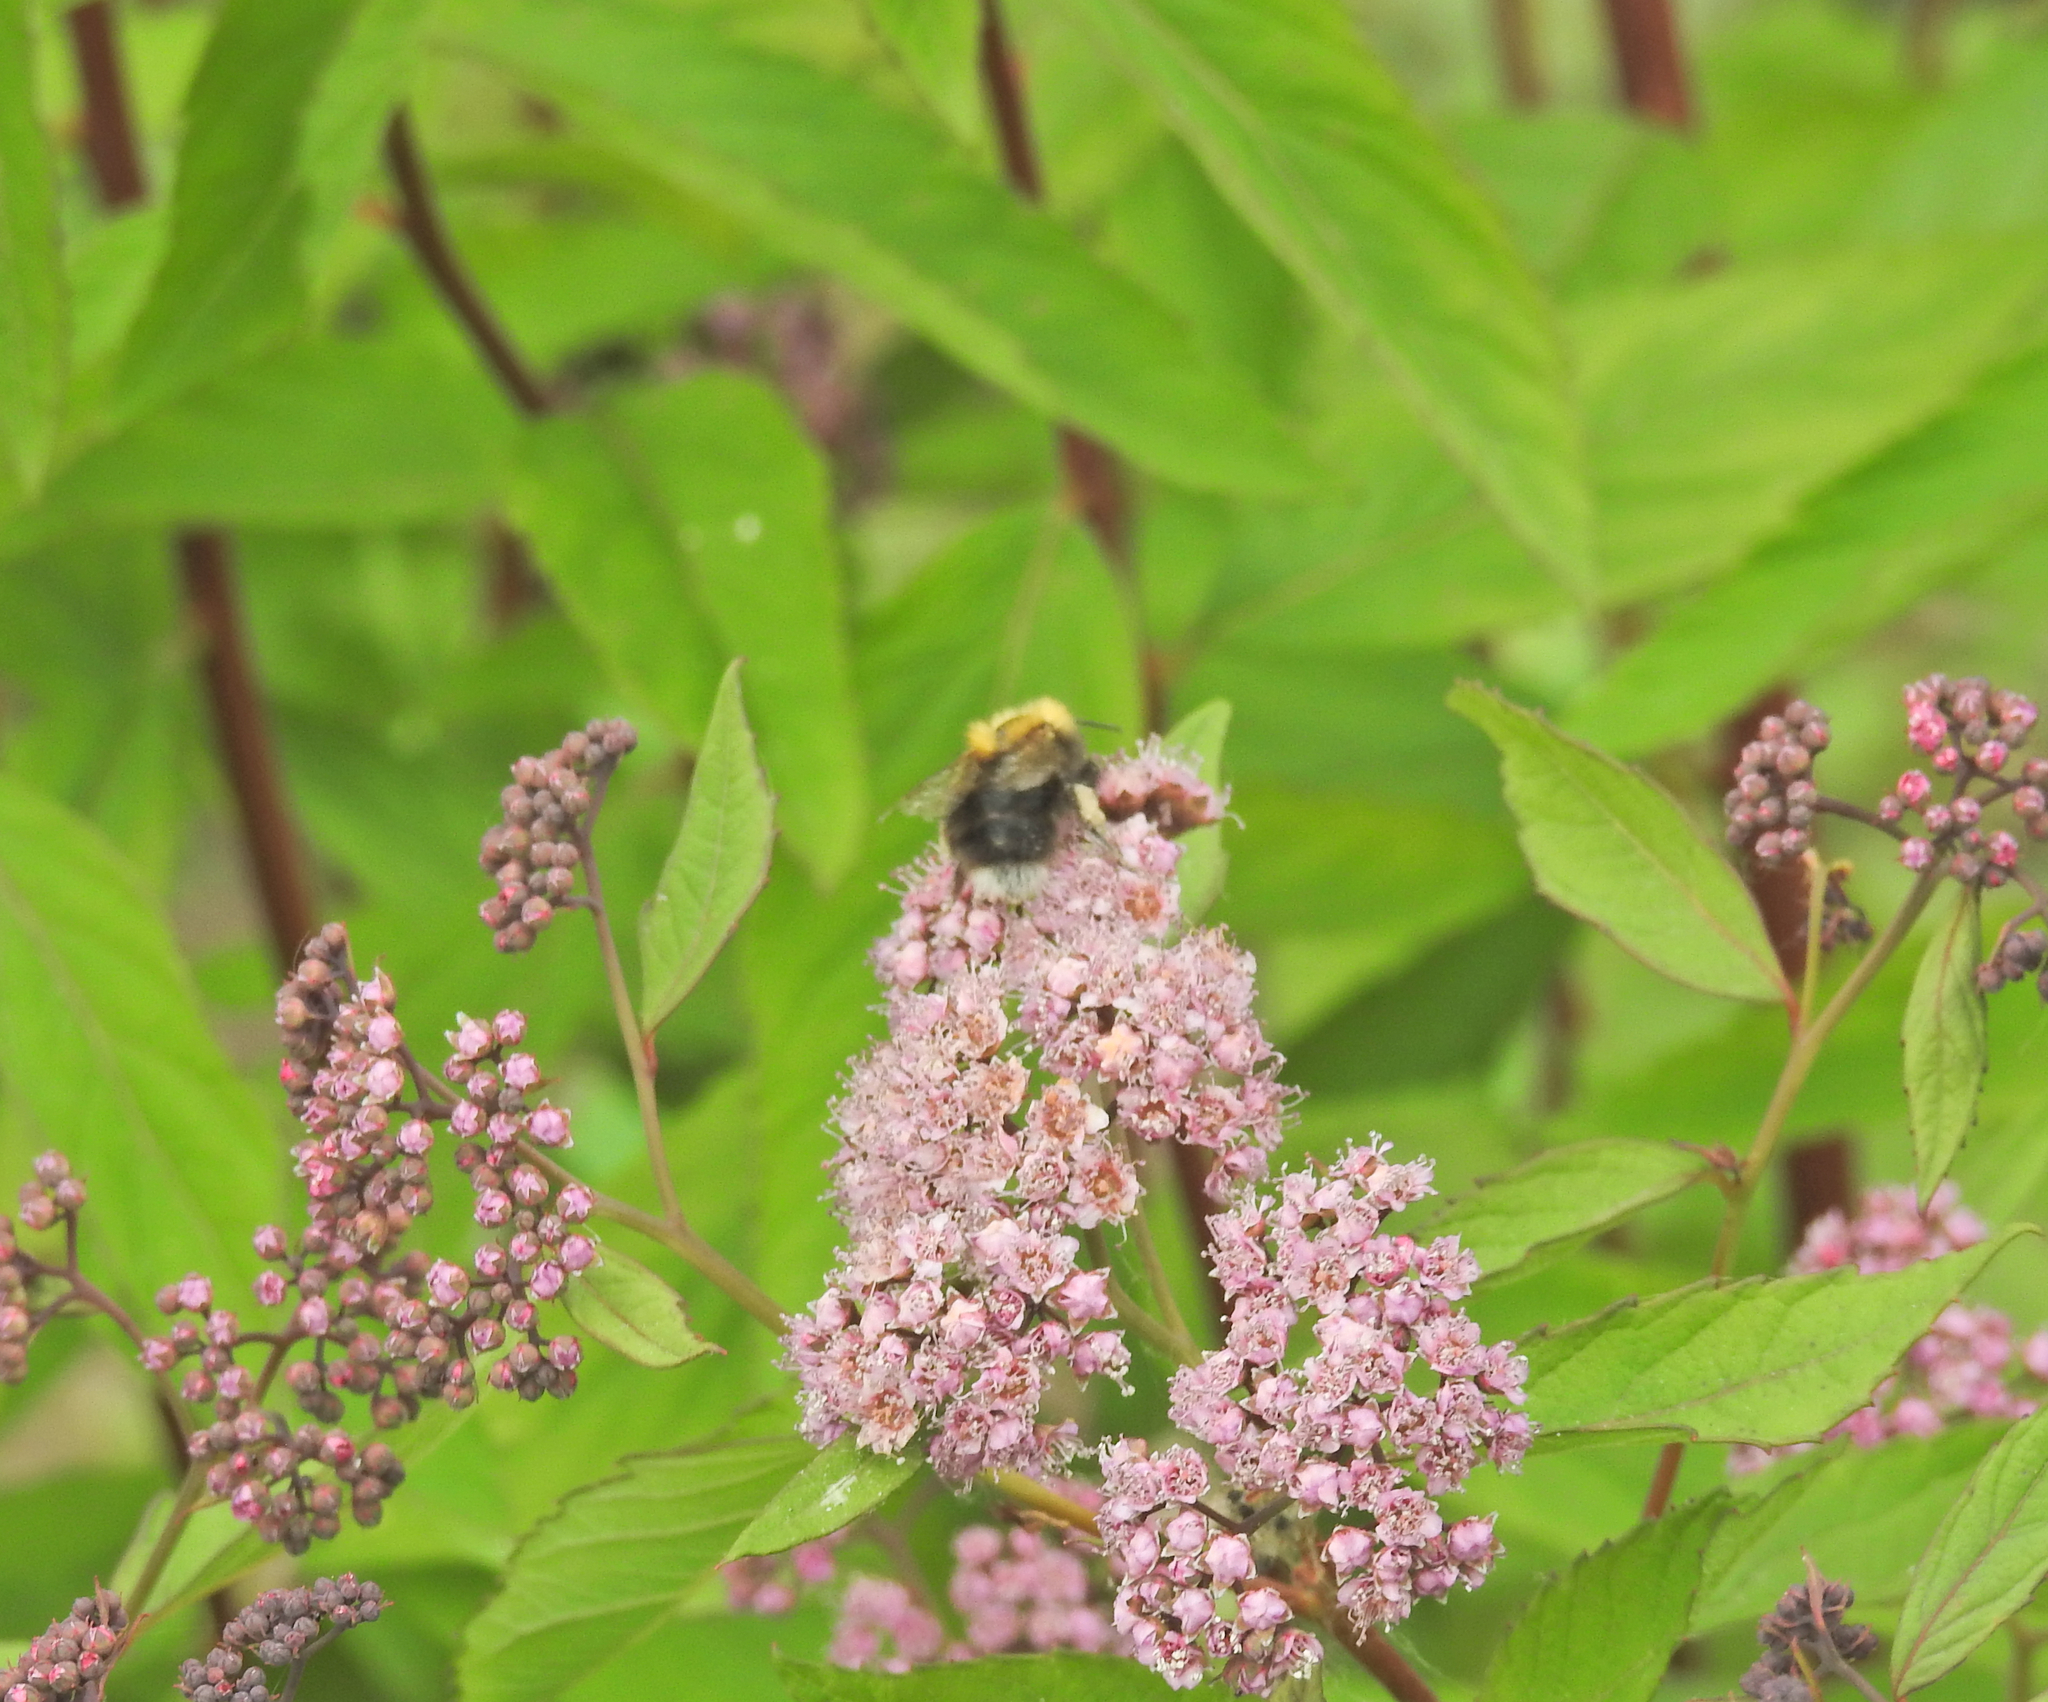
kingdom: Animalia
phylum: Arthropoda
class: Insecta
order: Hymenoptera
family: Apidae
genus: Bombus
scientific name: Bombus hypnorum
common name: New garden bumblebee
